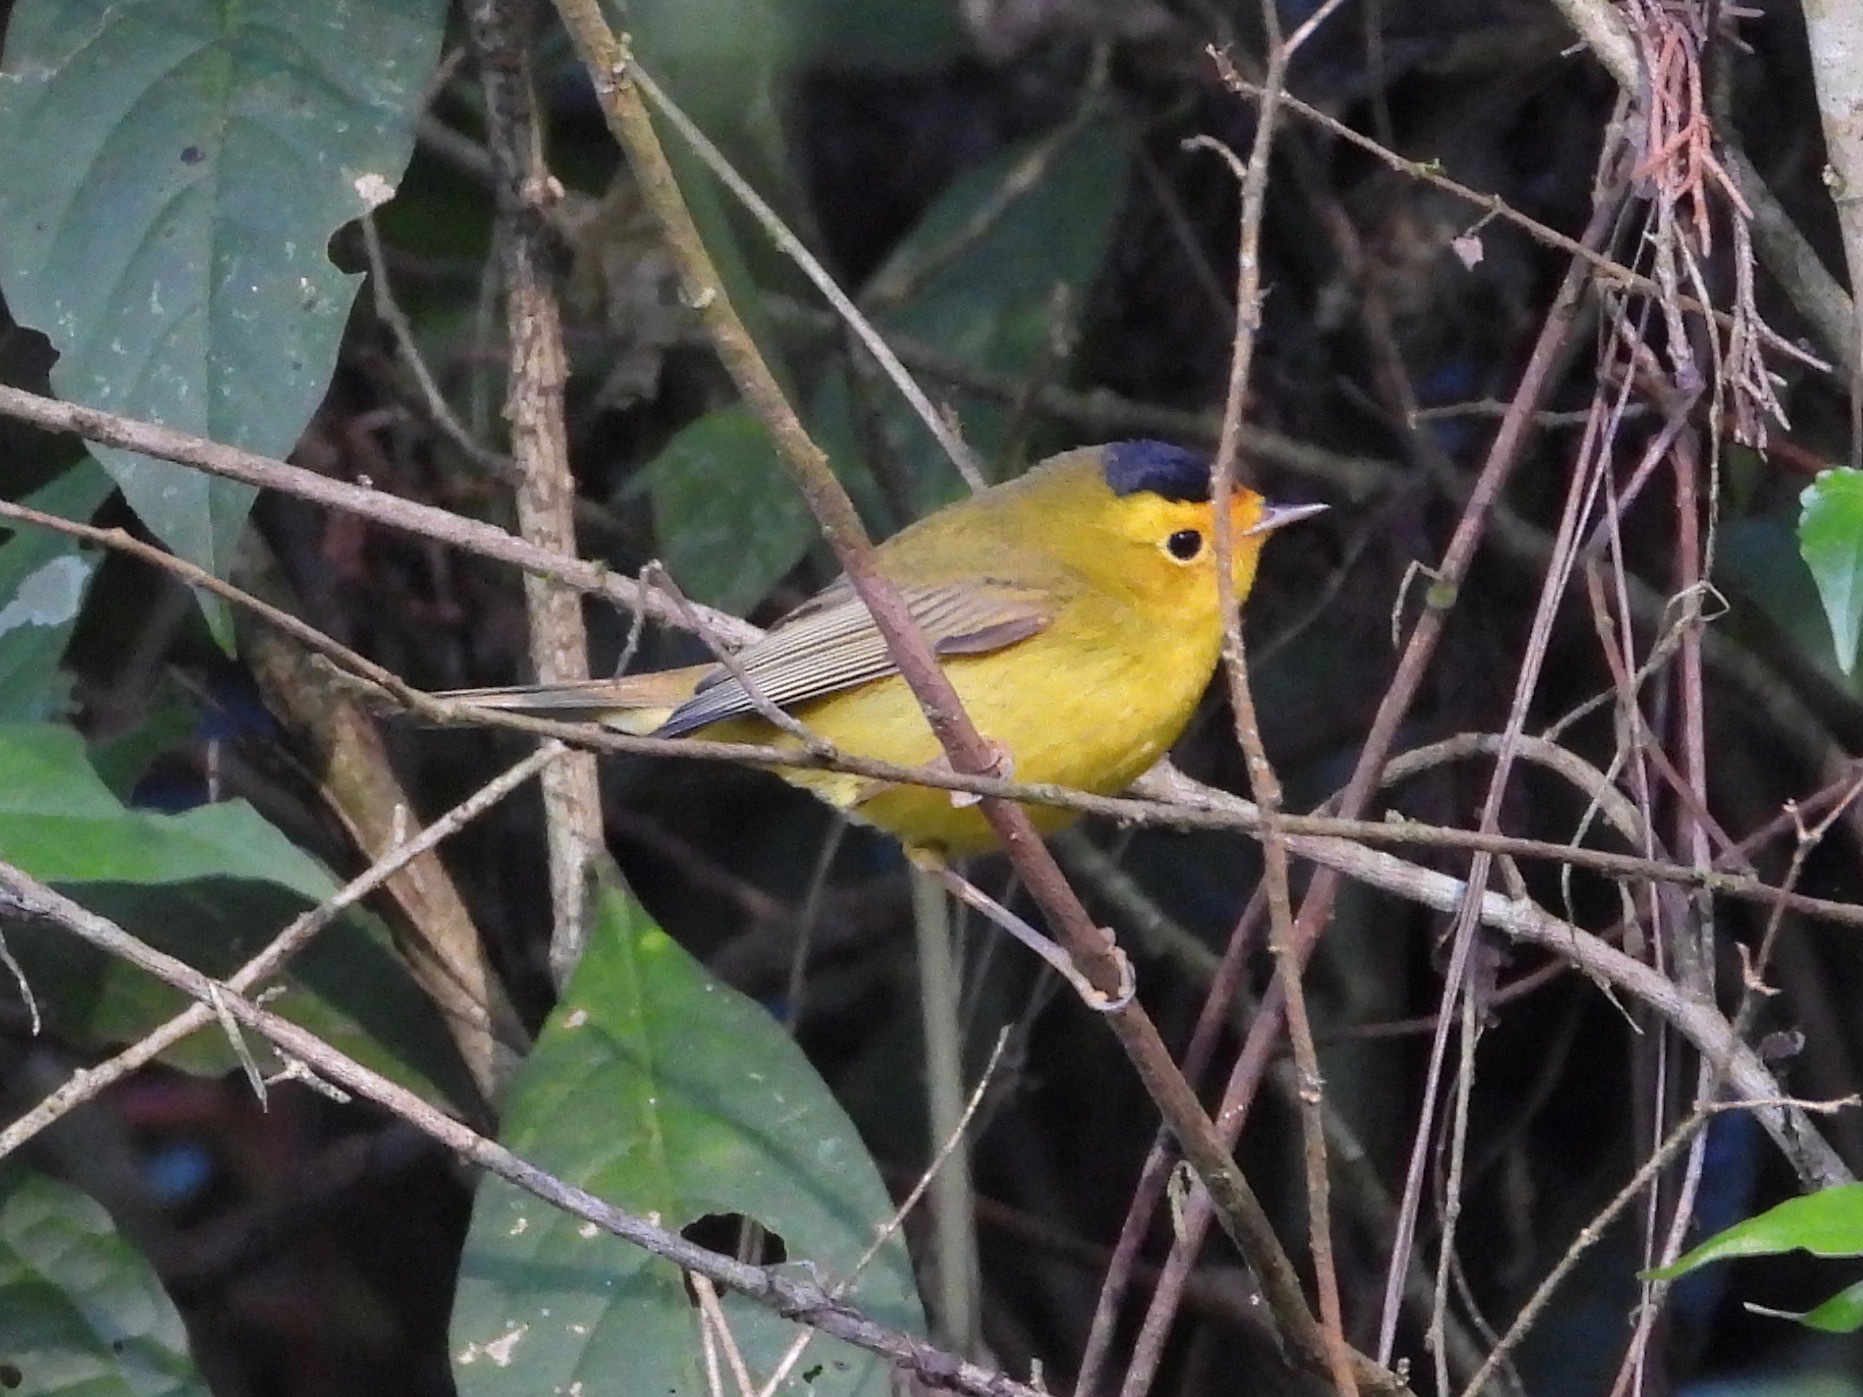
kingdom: Animalia
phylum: Chordata
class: Aves
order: Passeriformes
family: Parulidae
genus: Cardellina
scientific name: Cardellina pusilla
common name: Wilson's warbler
